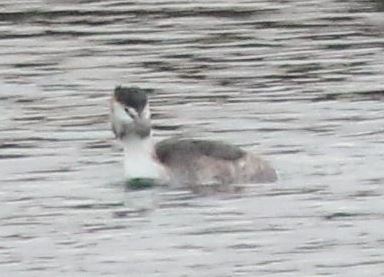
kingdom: Animalia
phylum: Chordata
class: Aves
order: Podicipediformes
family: Podicipedidae
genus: Podiceps
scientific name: Podiceps cristatus
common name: Great crested grebe
